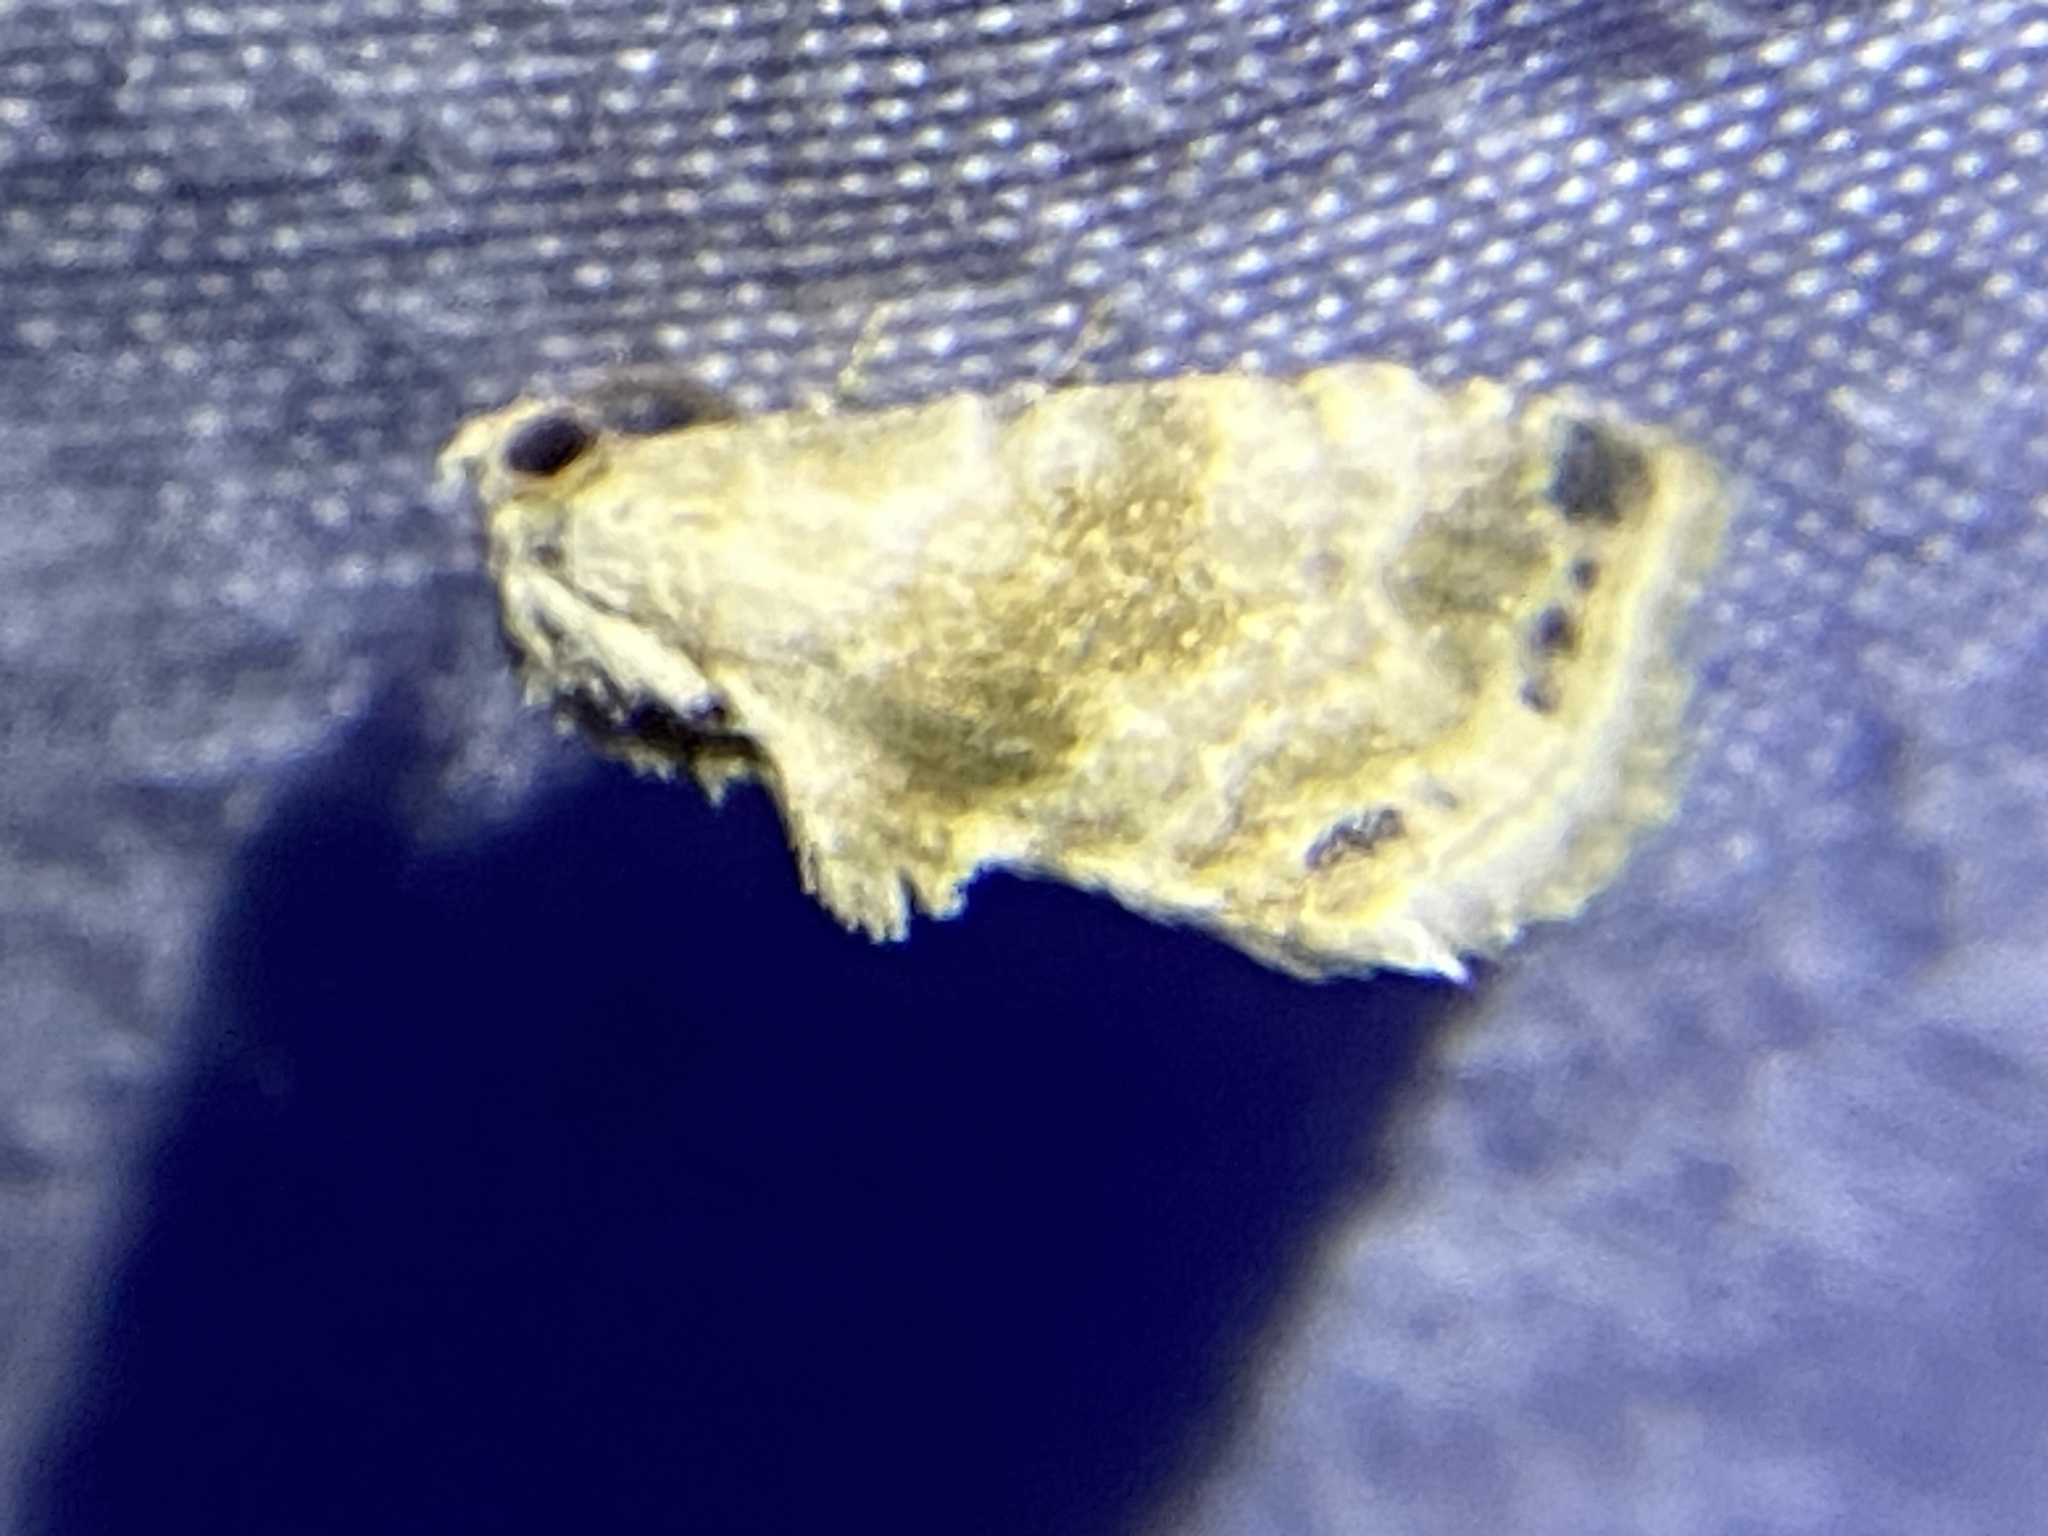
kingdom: Animalia
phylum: Arthropoda
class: Insecta
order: Lepidoptera
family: Noctuidae
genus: Eublemma
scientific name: Eublemma minima
